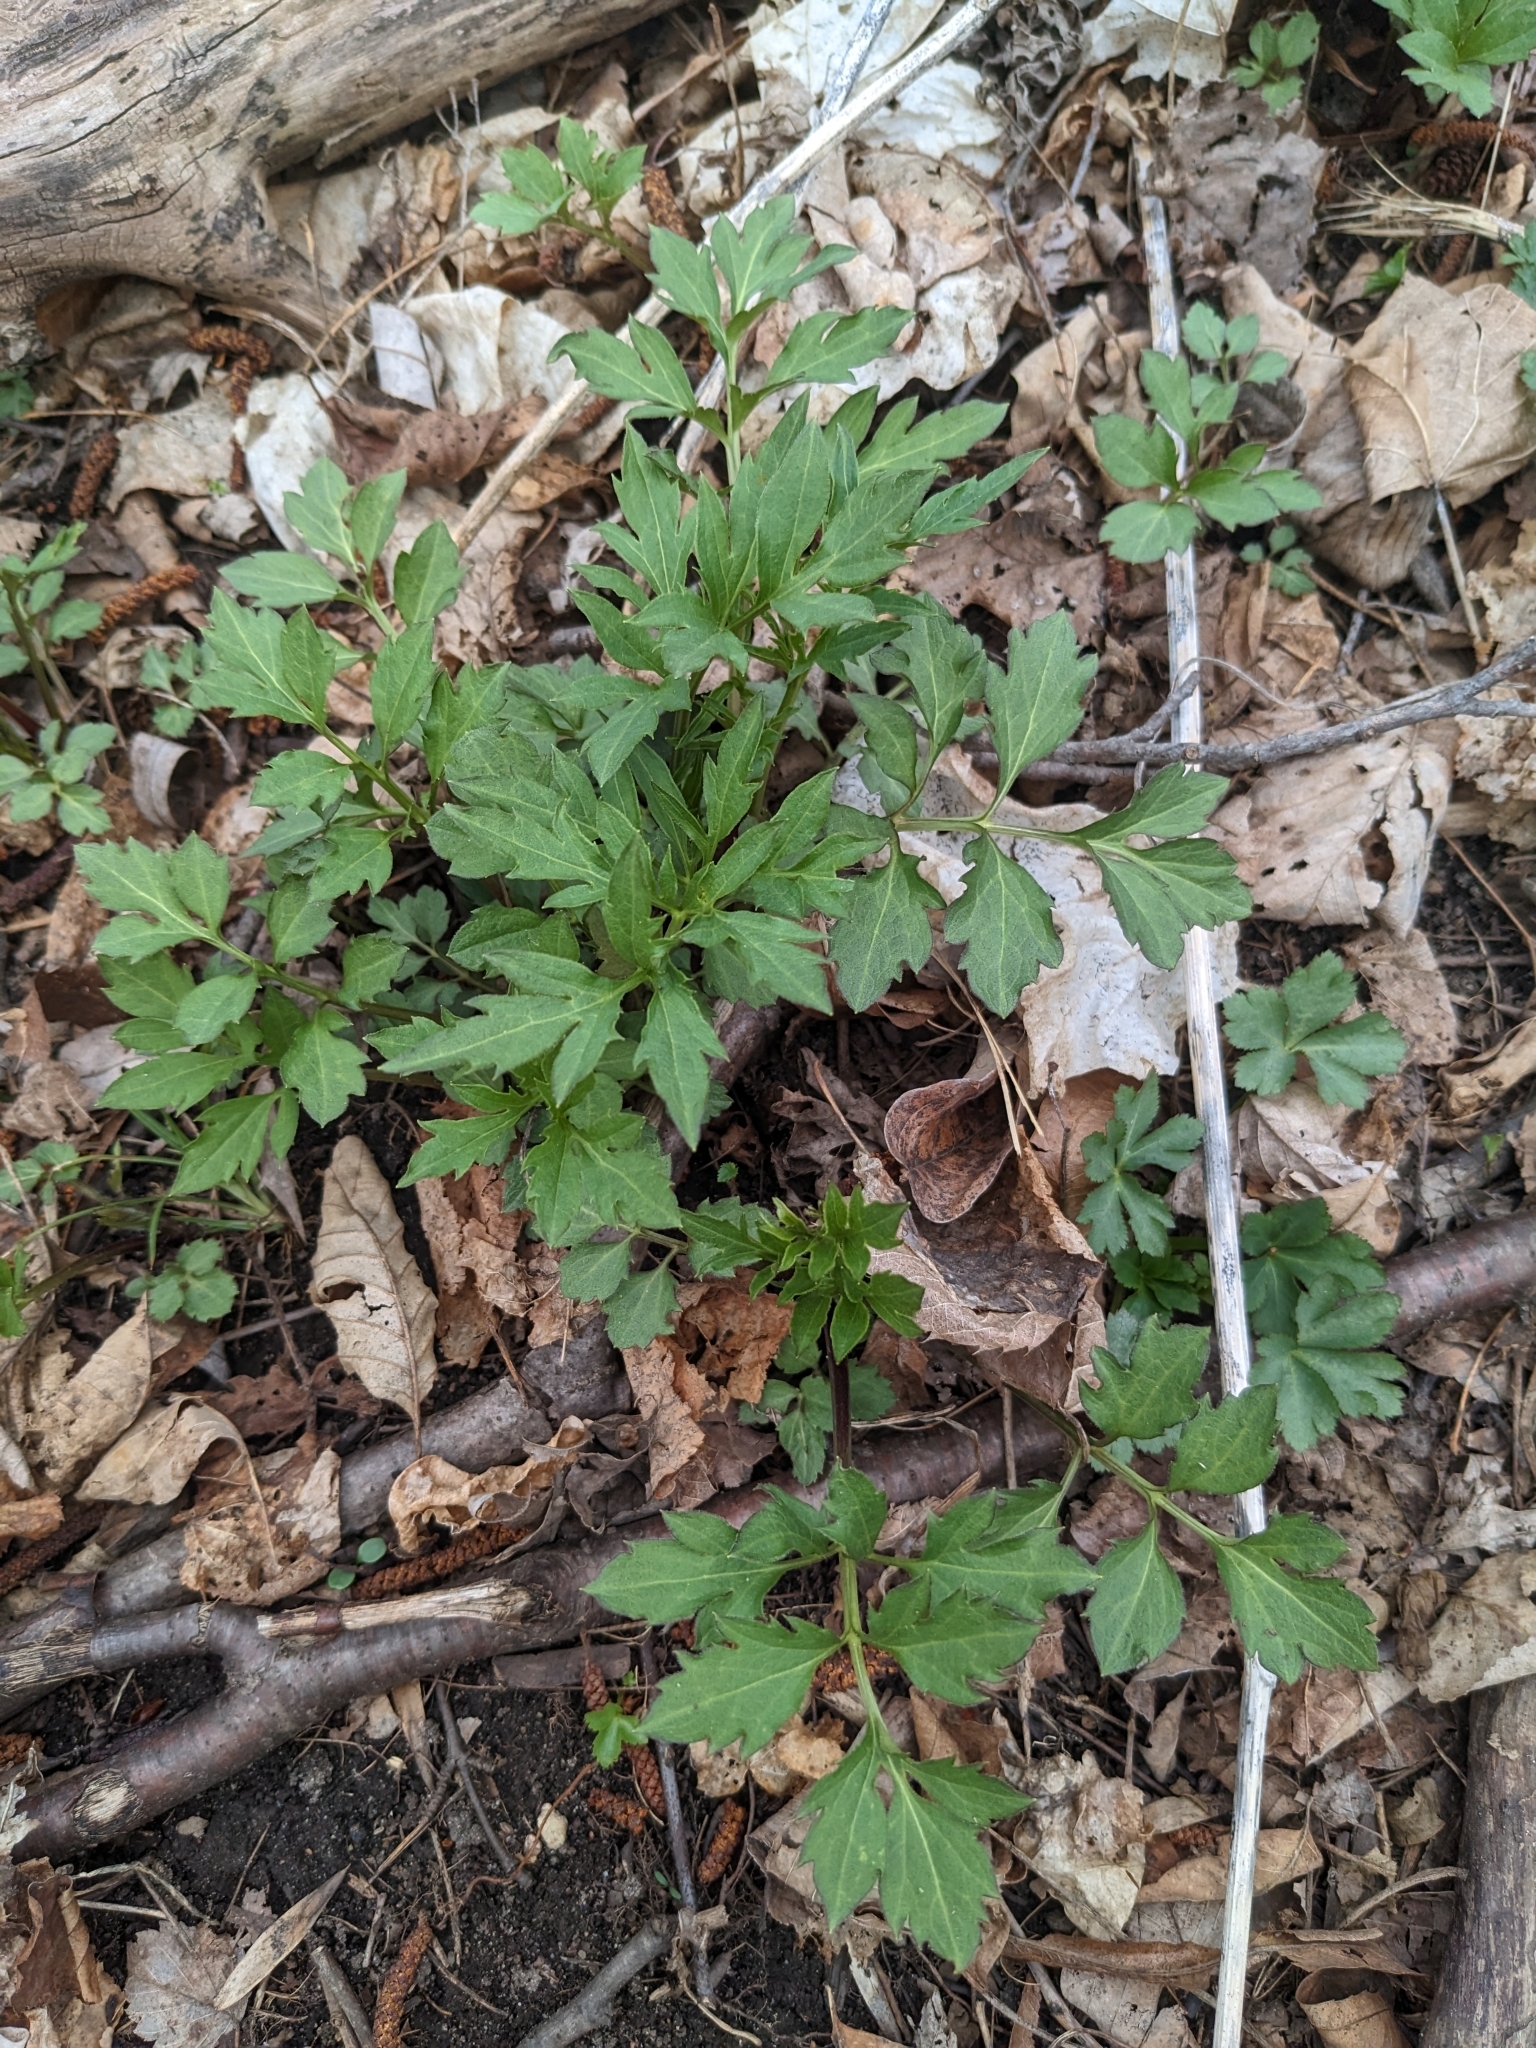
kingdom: Plantae
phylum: Tracheophyta
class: Magnoliopsida
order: Asterales
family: Asteraceae
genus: Rudbeckia
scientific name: Rudbeckia laciniata
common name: Coneflower
